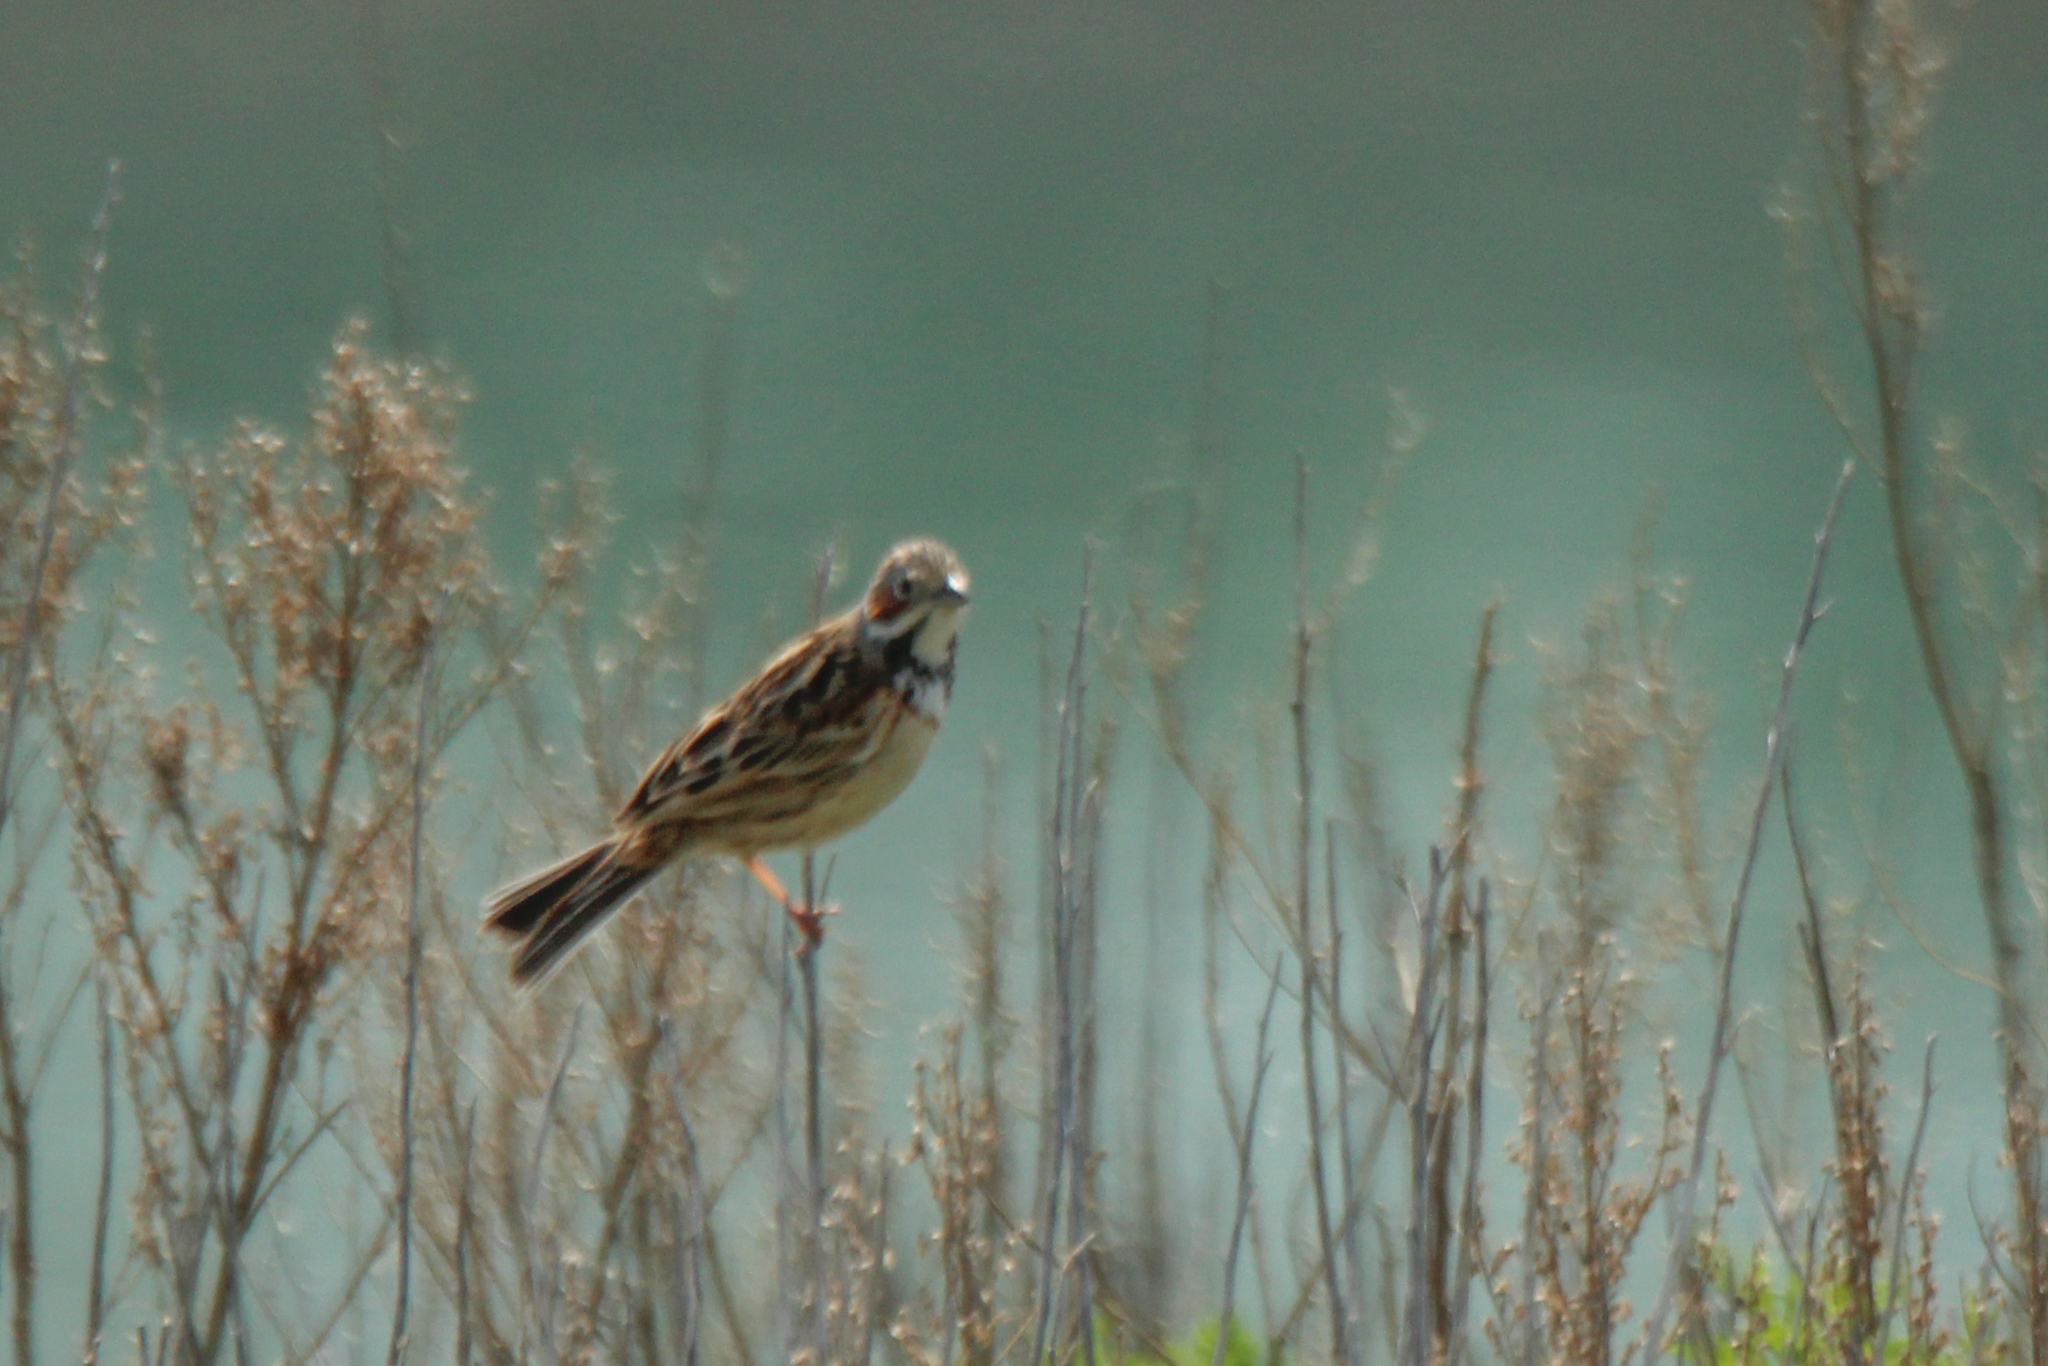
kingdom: Animalia
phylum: Chordata
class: Aves
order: Passeriformes
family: Emberizidae
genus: Emberiza
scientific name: Emberiza fucata
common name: Chestnut-eared bunting
